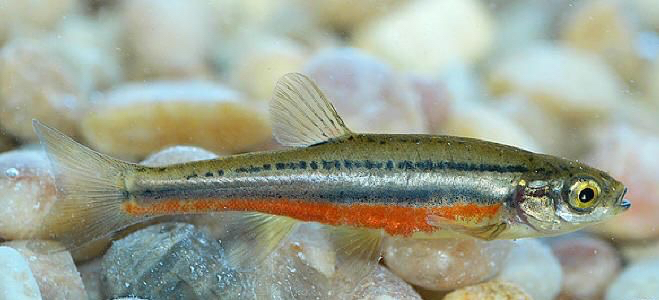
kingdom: Animalia
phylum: Chordata
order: Cypriniformes
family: Cyprinidae
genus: Chrosomus
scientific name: Chrosomus eos
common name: Northern redbelly dace
